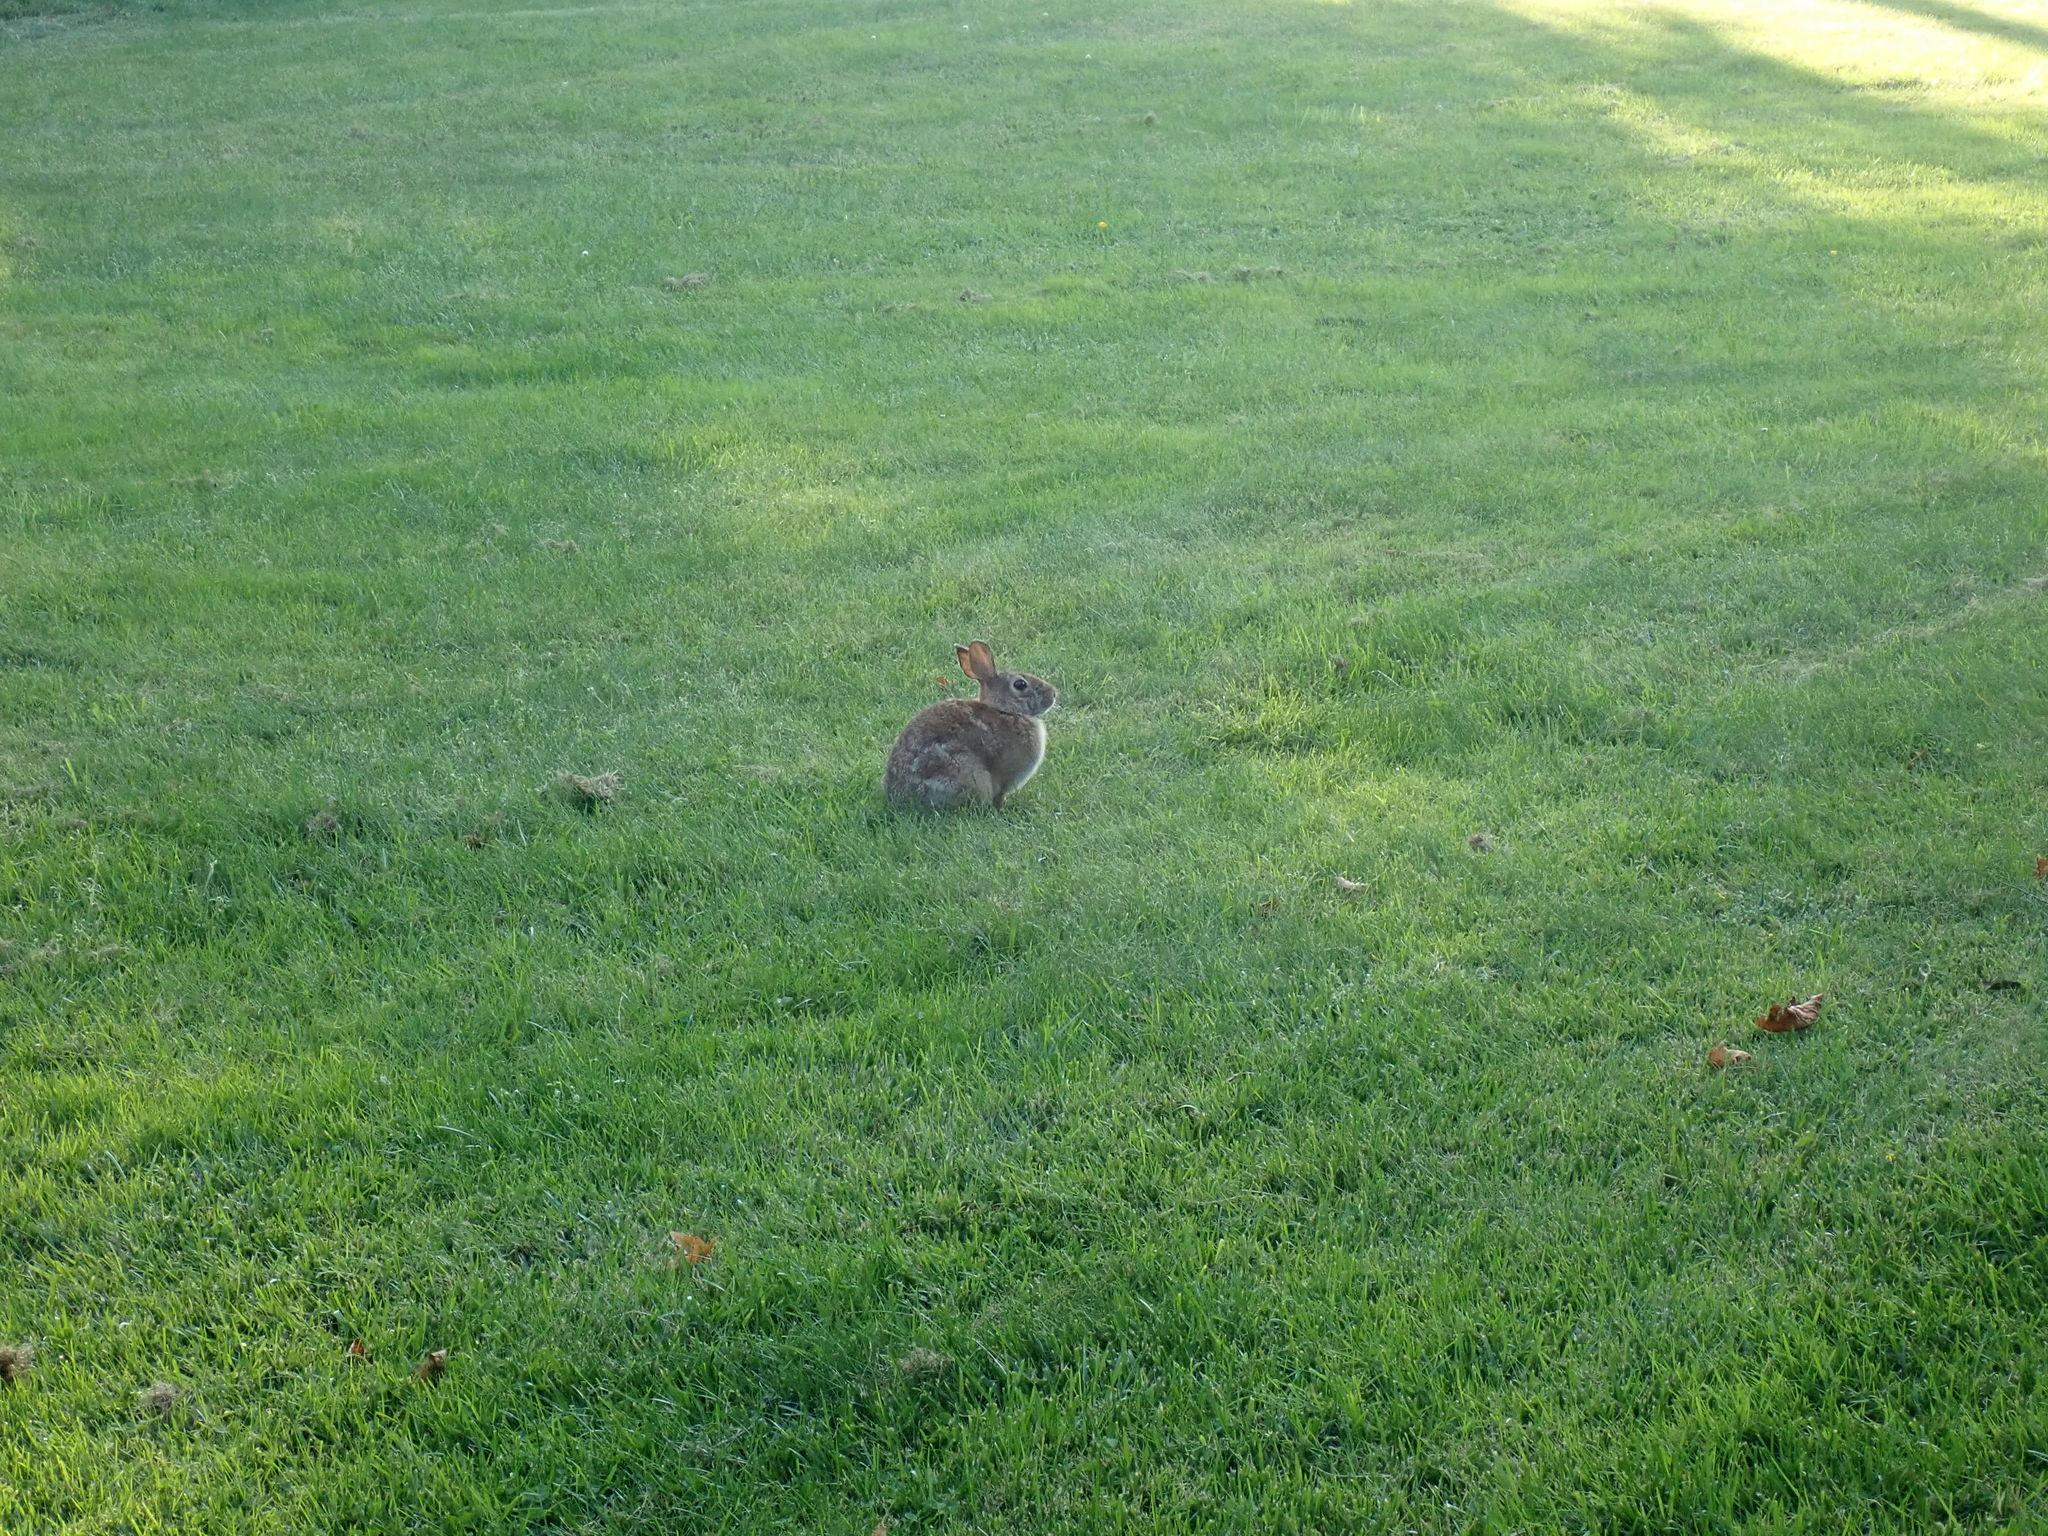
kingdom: Animalia
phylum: Chordata
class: Mammalia
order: Lagomorpha
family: Leporidae
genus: Sylvilagus
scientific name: Sylvilagus floridanus
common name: Eastern cottontail
